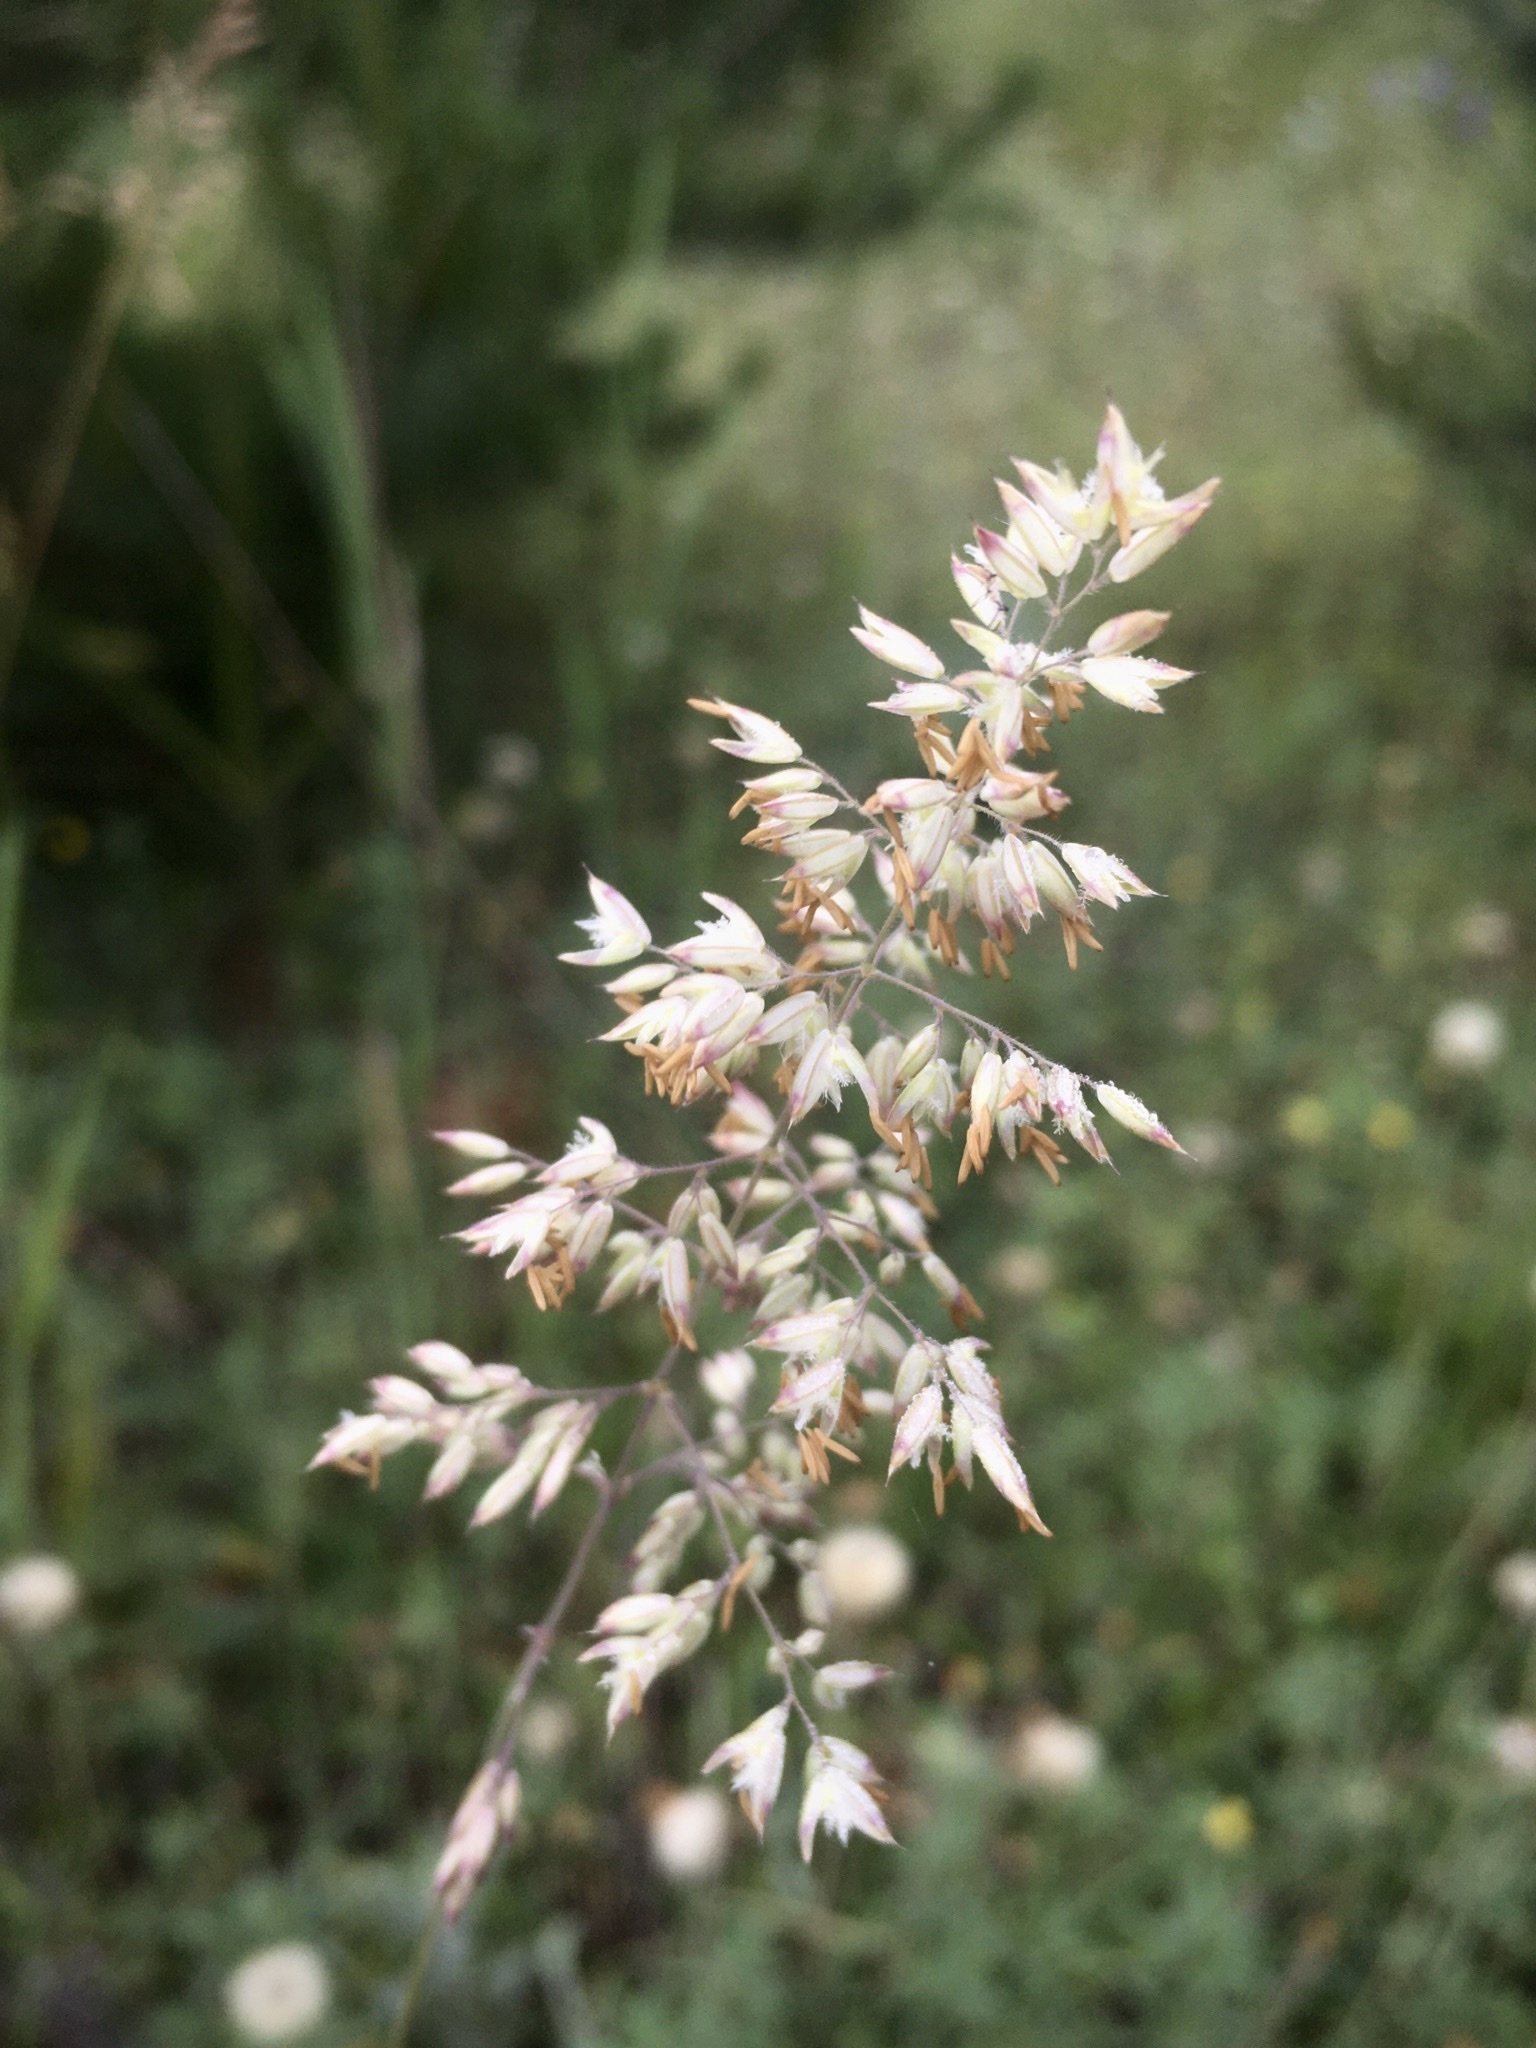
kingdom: Plantae
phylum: Tracheophyta
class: Liliopsida
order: Poales
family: Poaceae
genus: Holcus
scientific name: Holcus lanatus
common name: Yorkshire-fog
